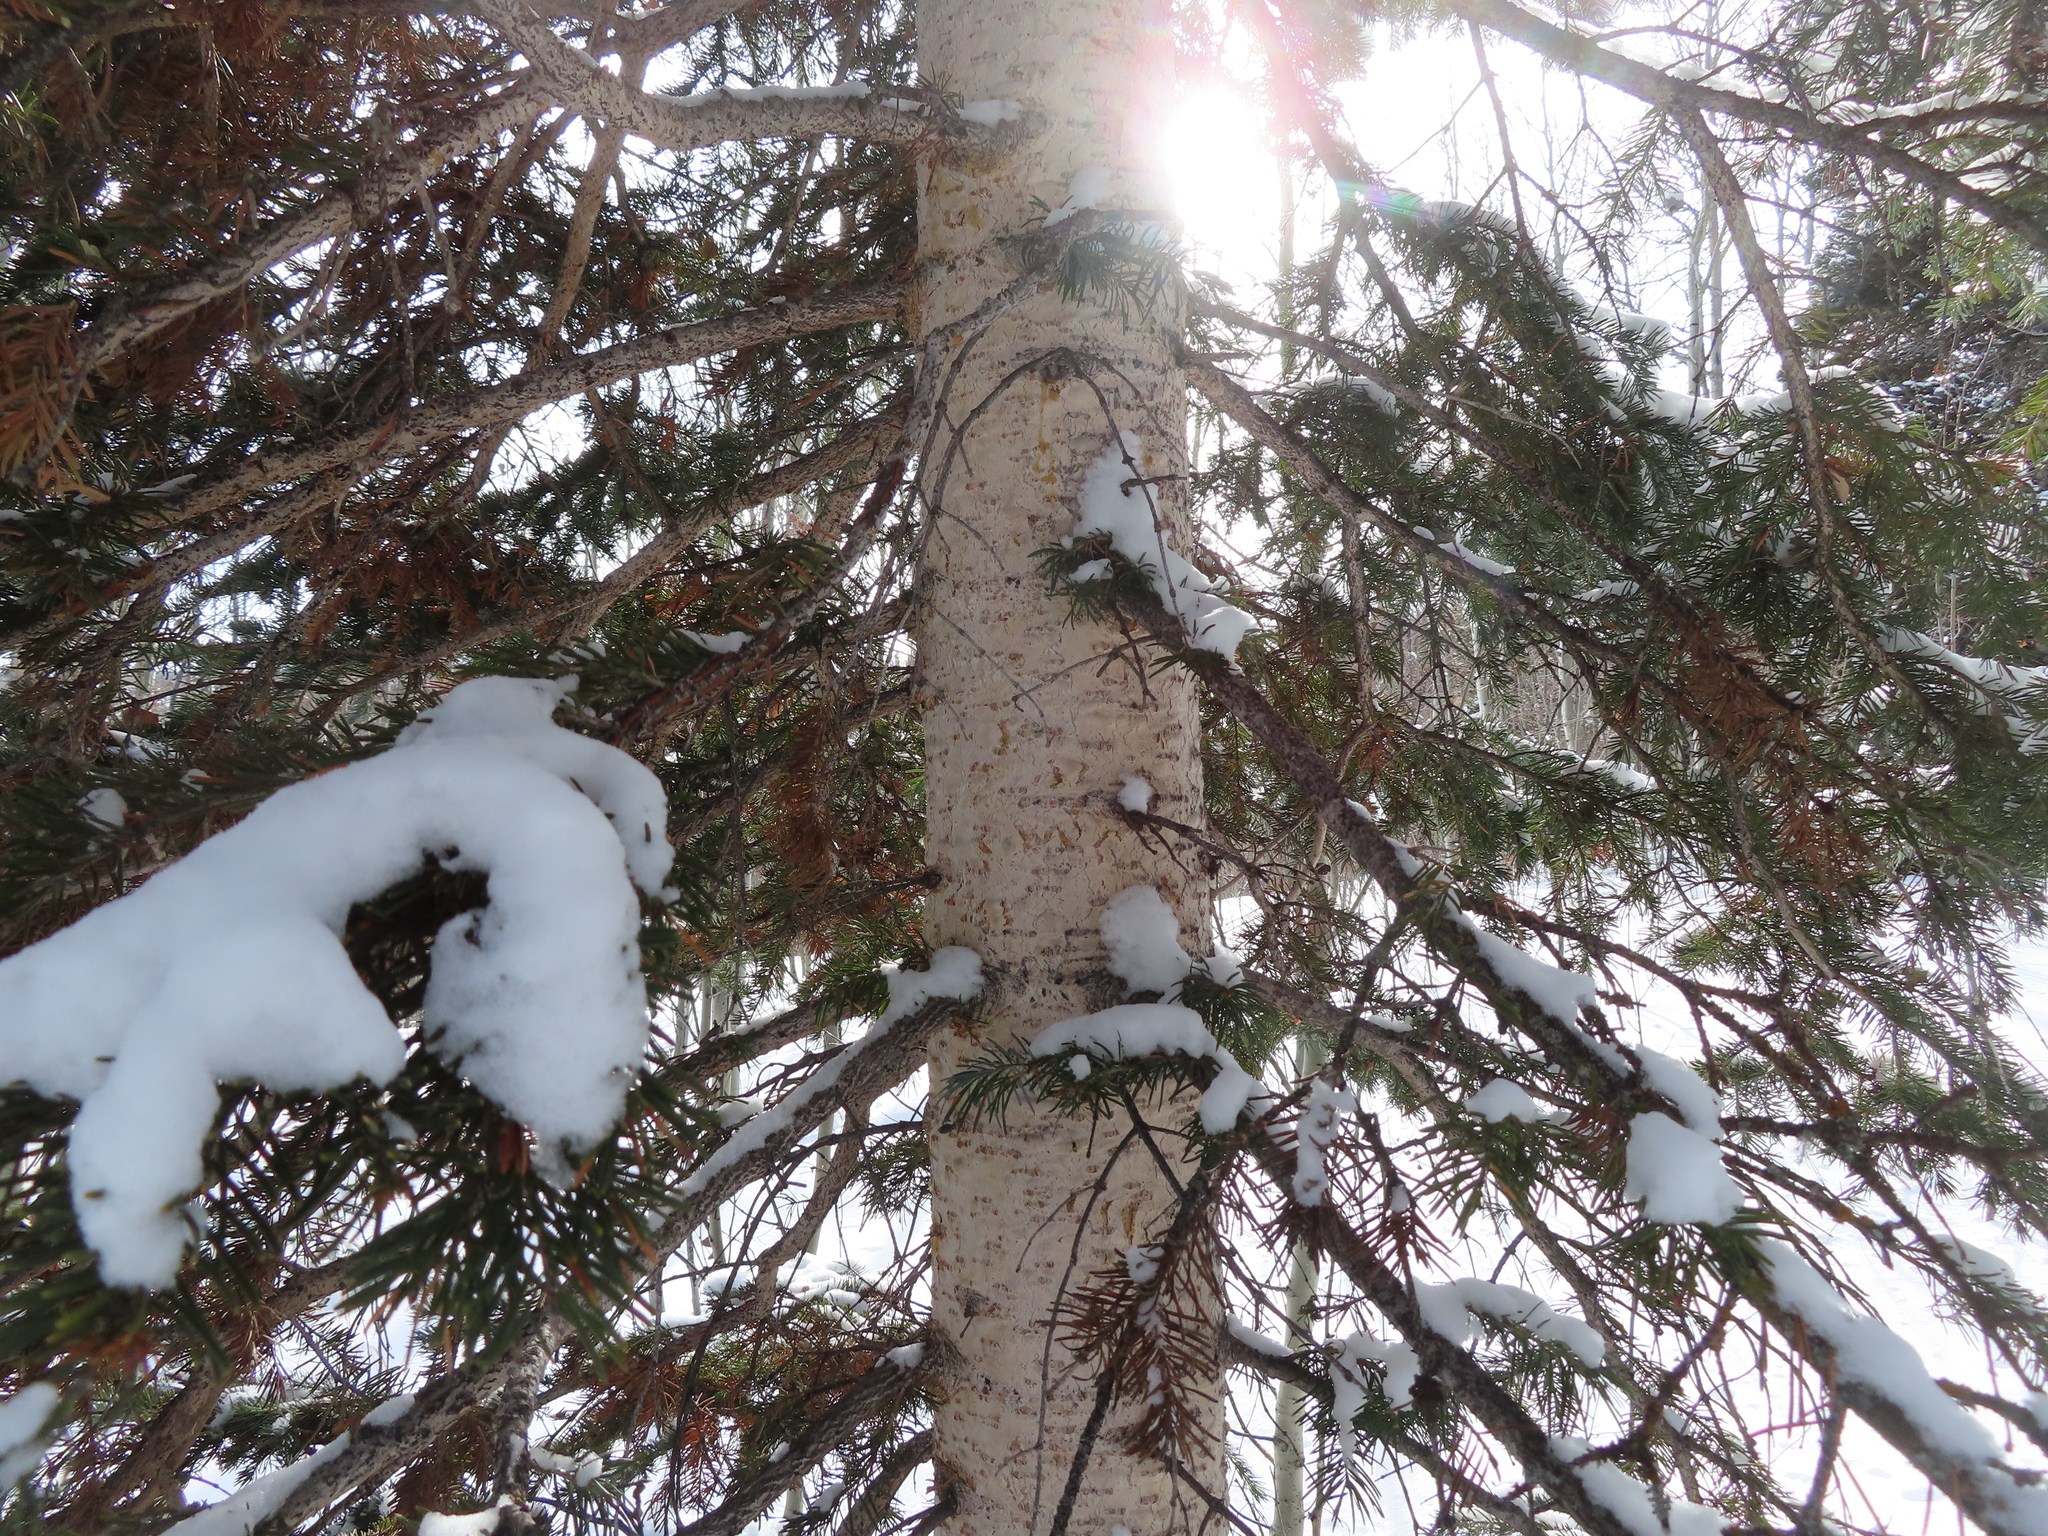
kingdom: Plantae
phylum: Tracheophyta
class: Pinopsida
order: Pinales
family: Pinaceae
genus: Abies
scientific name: Abies lasiocarpa
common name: Subalpine fir
